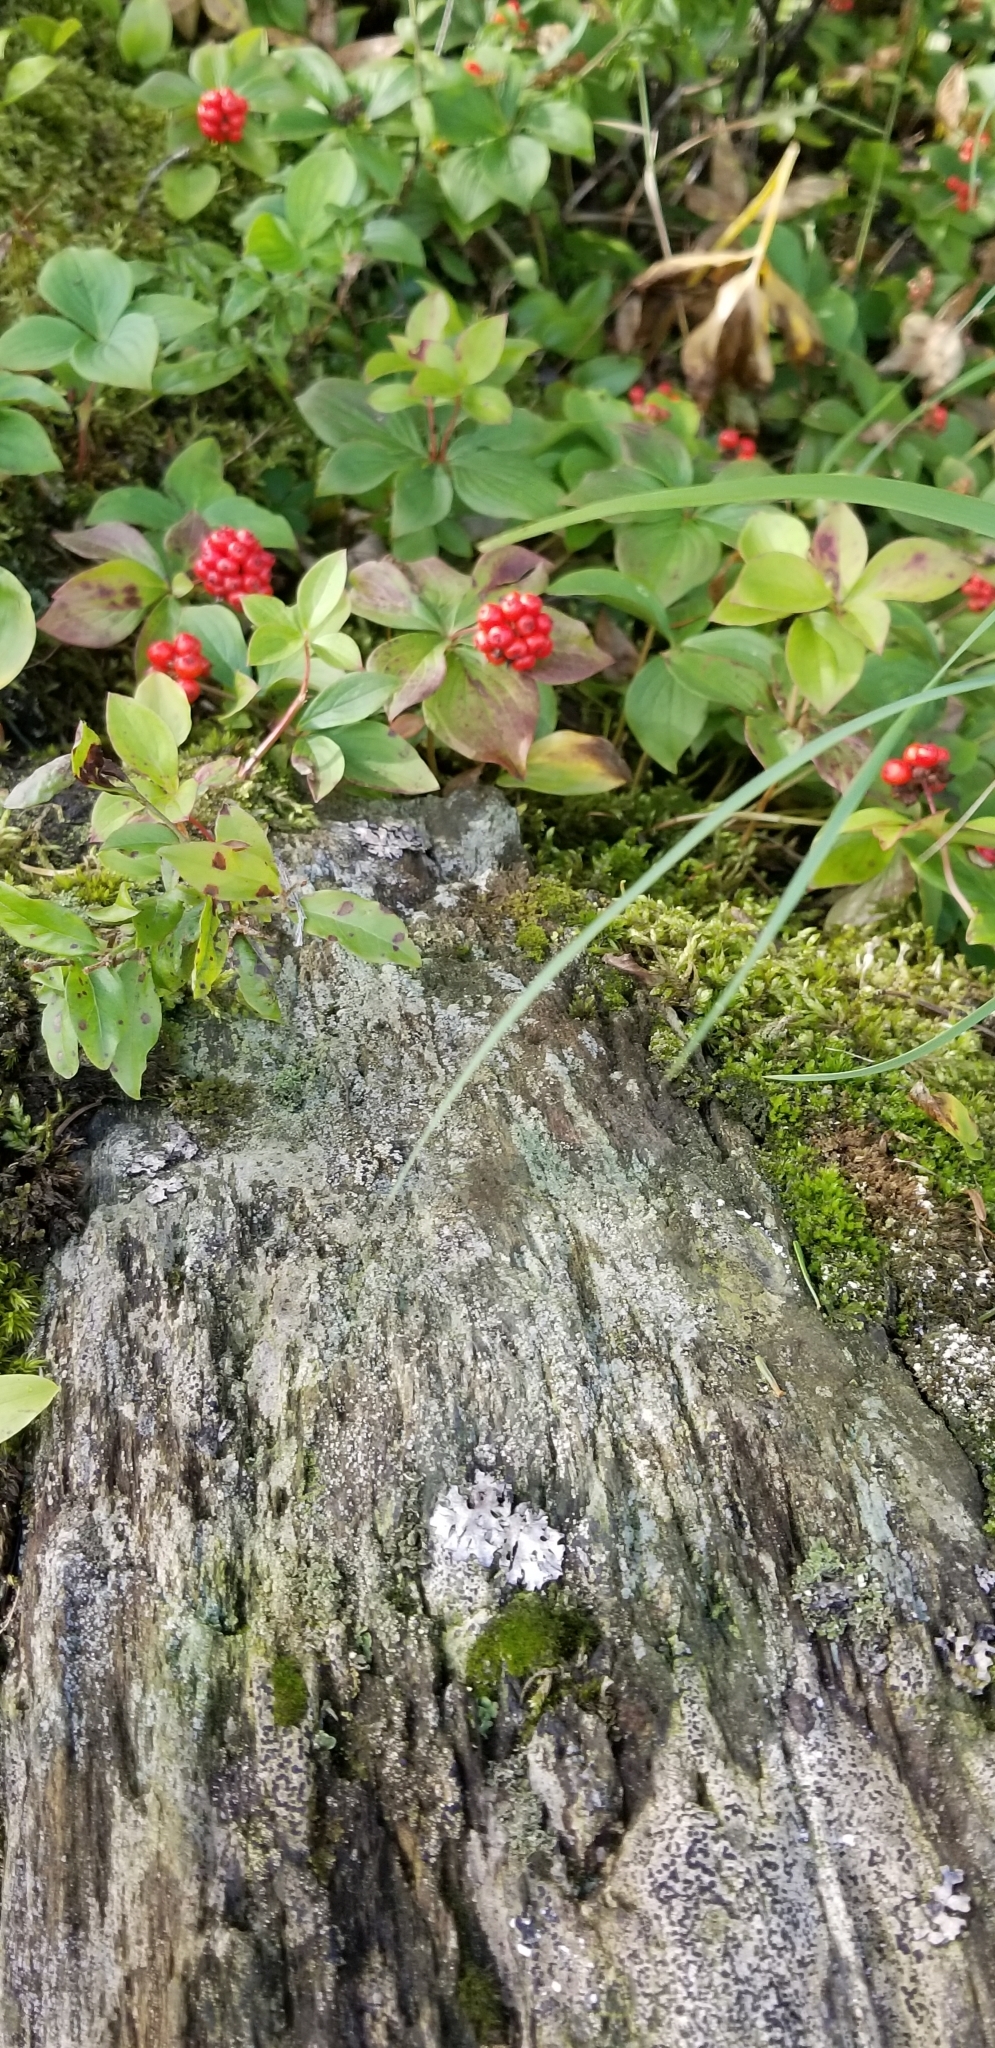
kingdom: Plantae
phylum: Tracheophyta
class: Magnoliopsida
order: Cornales
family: Cornaceae
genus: Cornus
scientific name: Cornus canadensis
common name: Creeping dogwood
